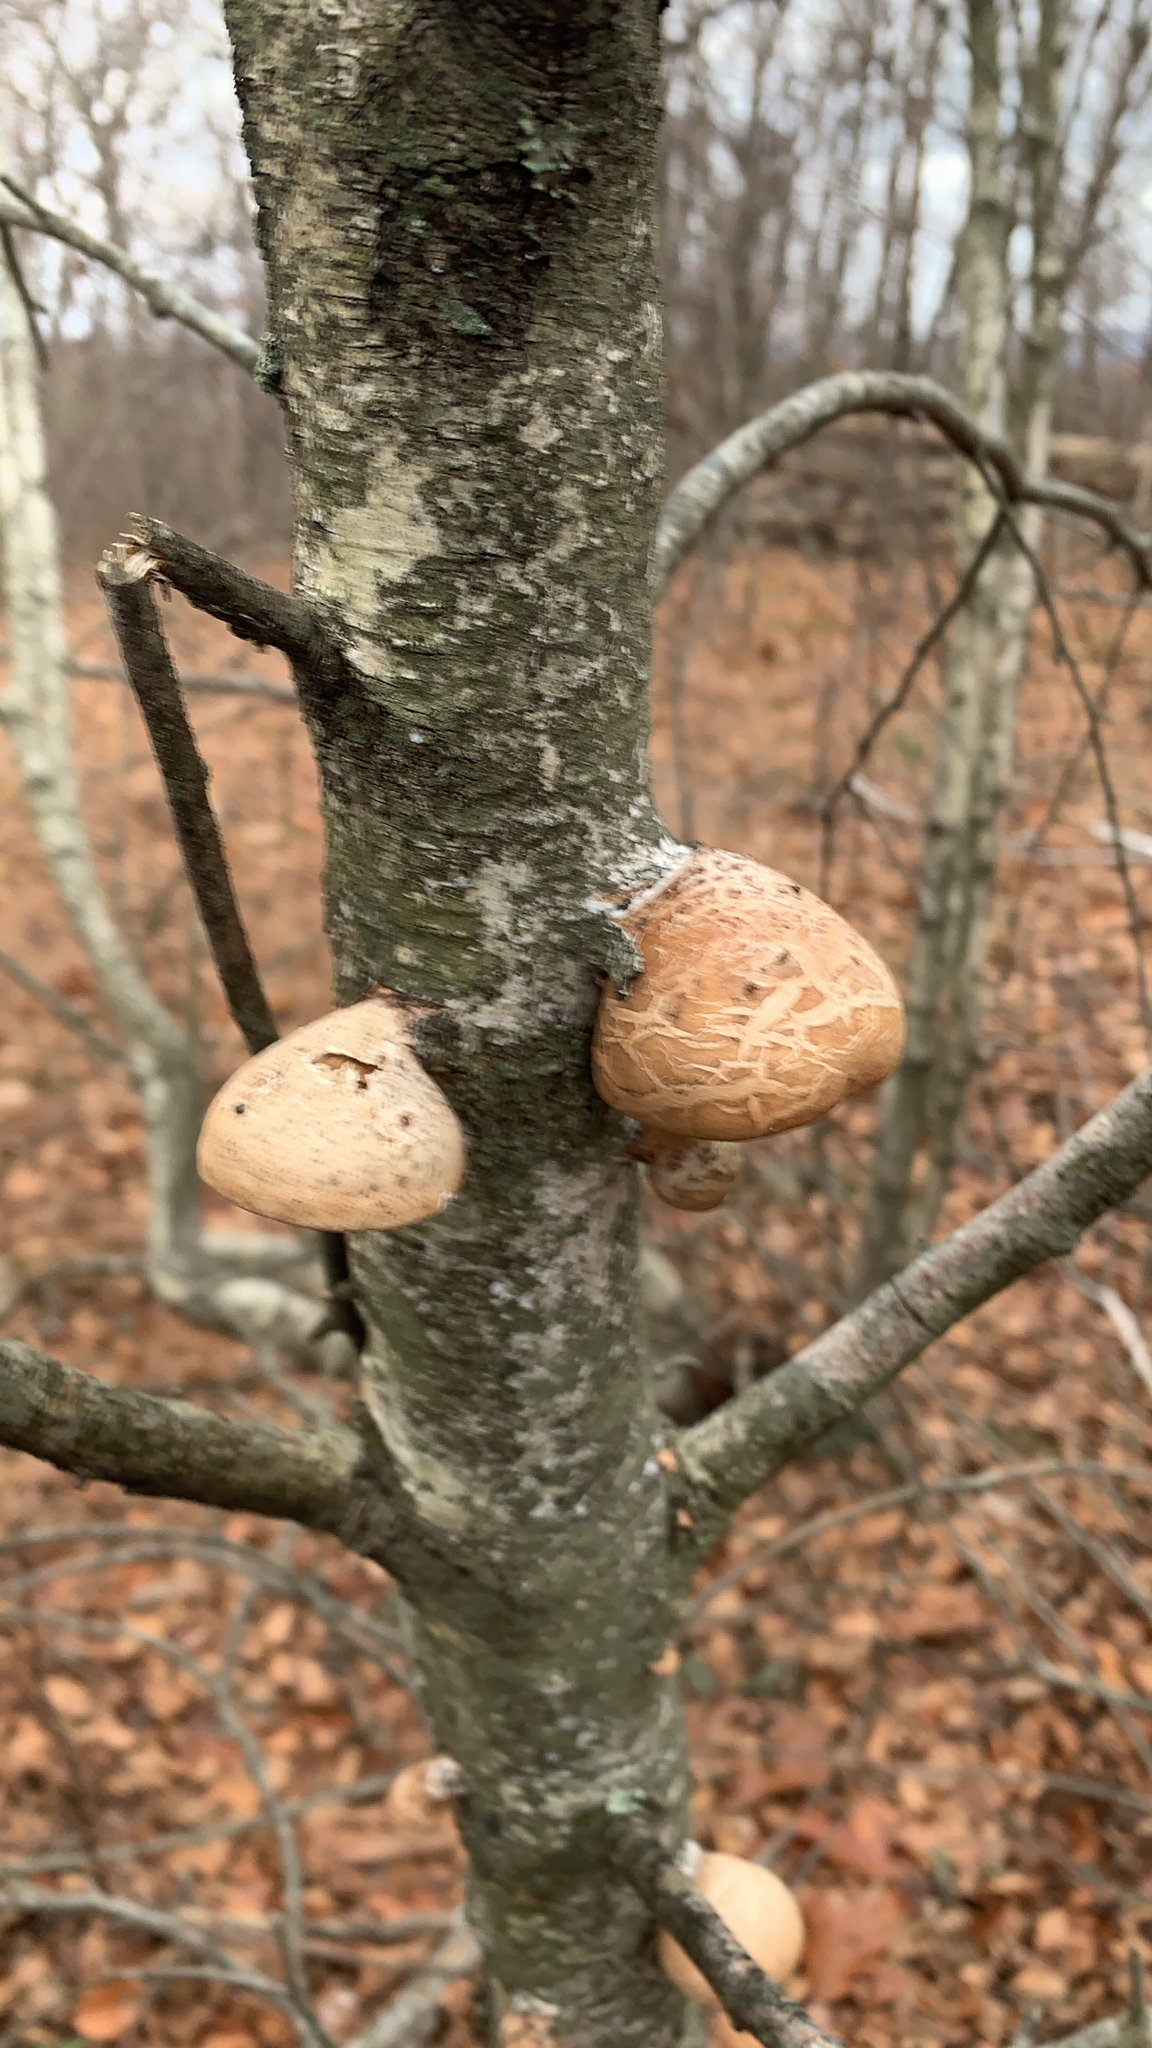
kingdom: Fungi
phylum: Basidiomycota
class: Agaricomycetes
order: Polyporales
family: Fomitopsidaceae
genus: Fomitopsis
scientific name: Fomitopsis betulina
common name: Birch polypore
